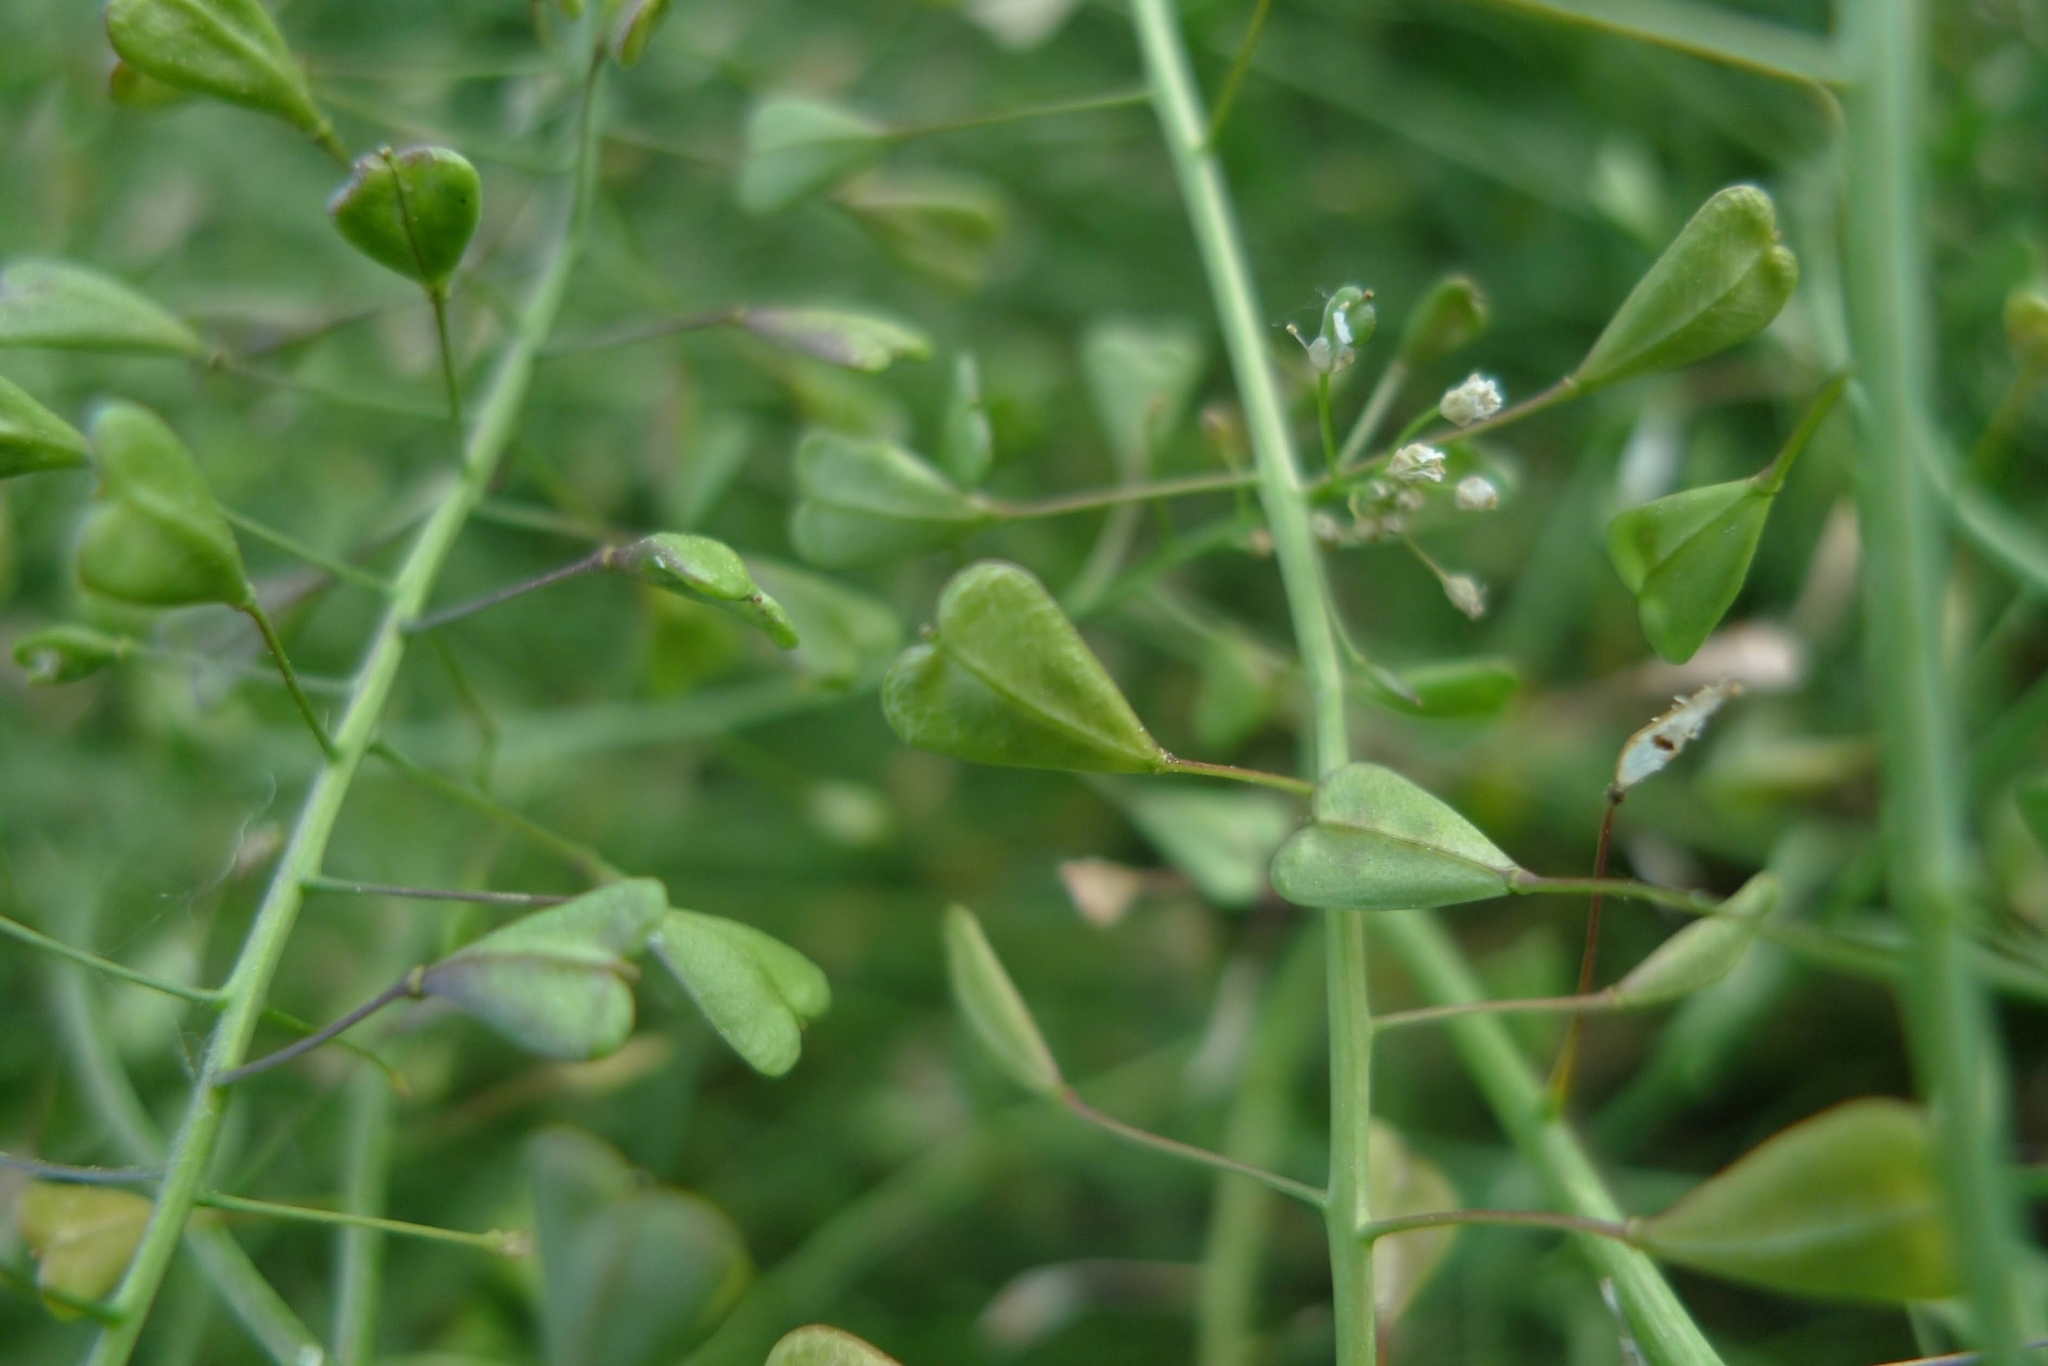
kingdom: Plantae
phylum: Tracheophyta
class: Magnoliopsida
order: Brassicales
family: Brassicaceae
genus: Capsella
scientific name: Capsella bursa-pastoris
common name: Shepherd's purse
